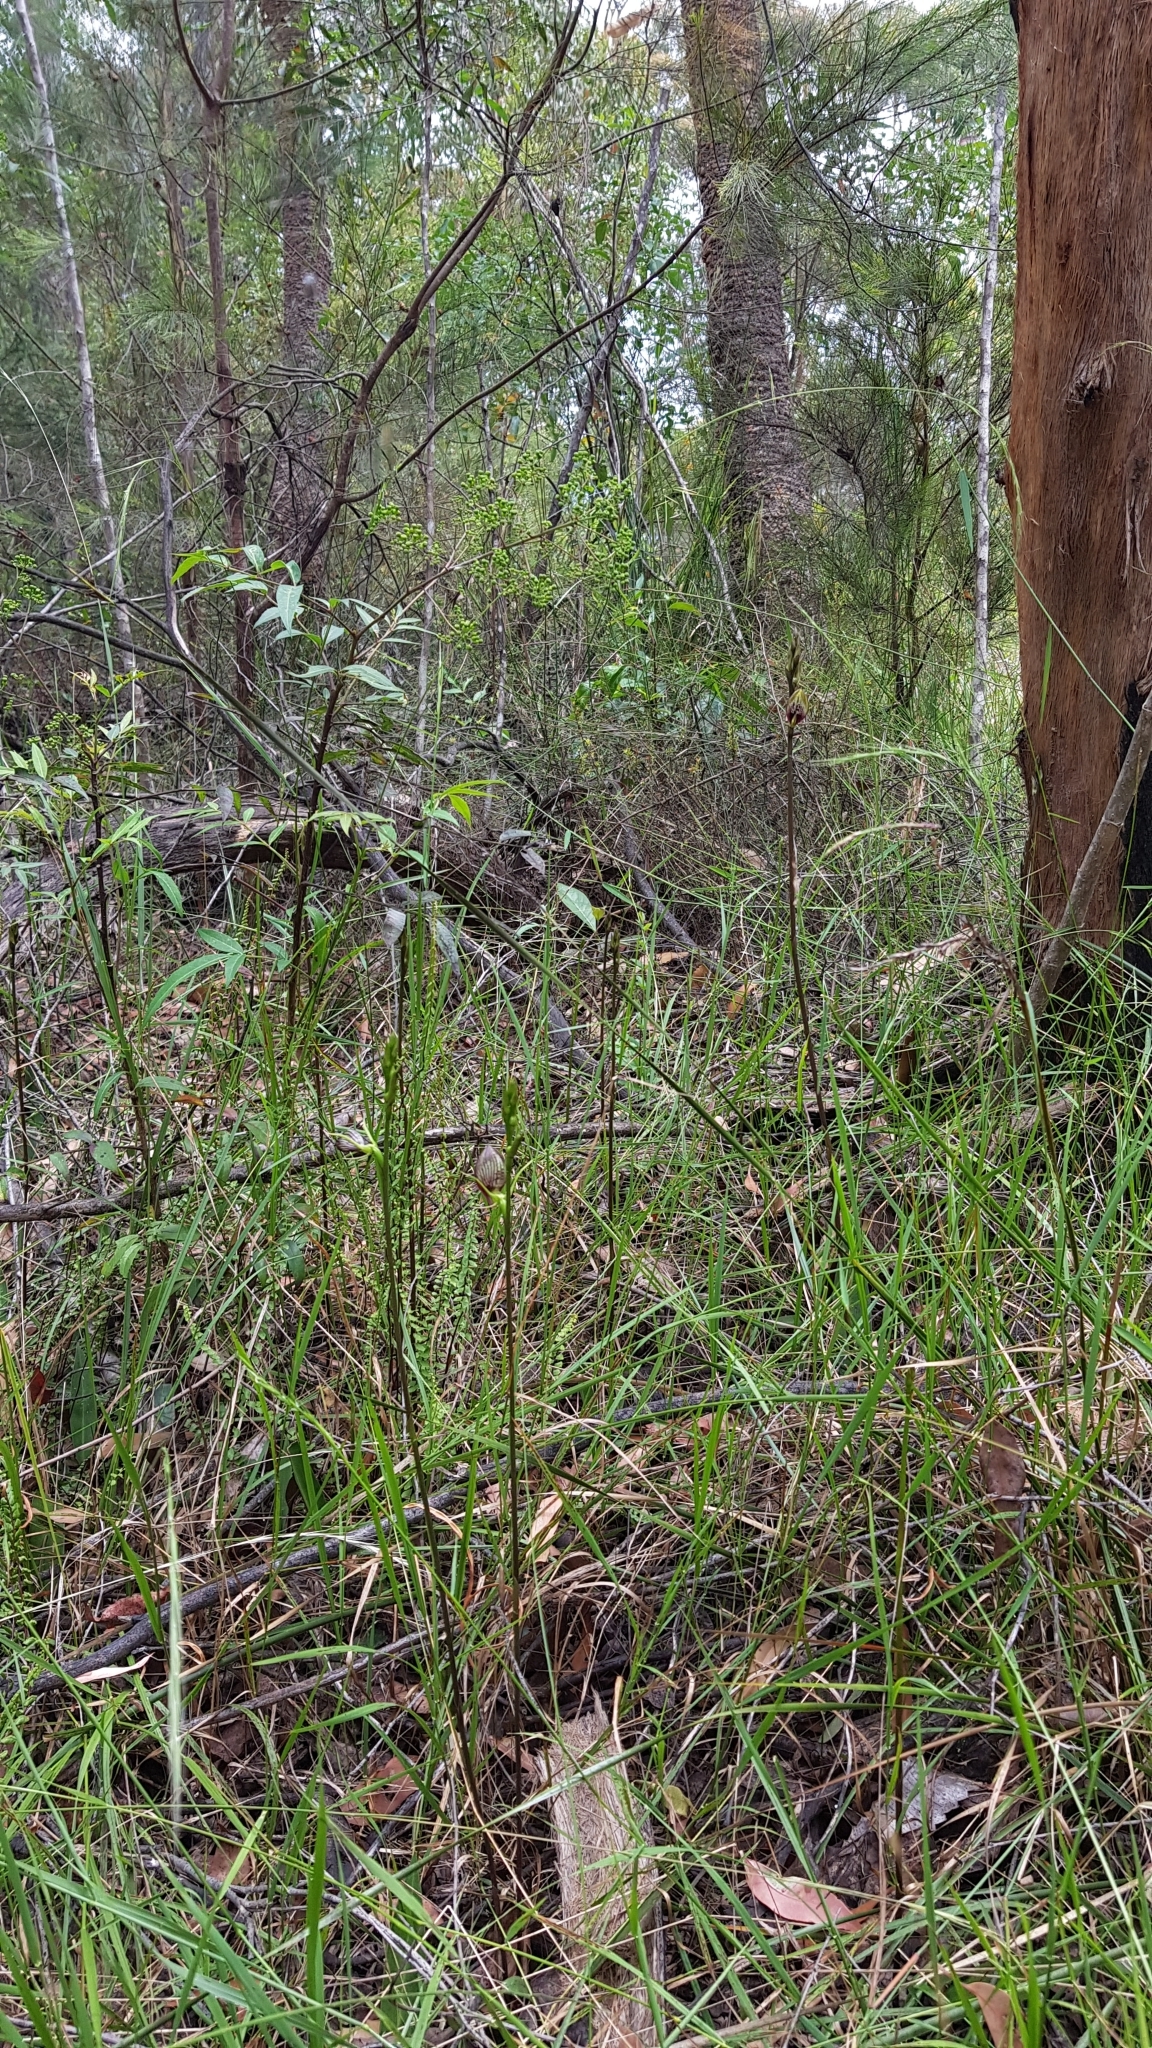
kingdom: Plantae
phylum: Tracheophyta
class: Liliopsida
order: Asparagales
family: Orchidaceae
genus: Cryptostylis
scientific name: Cryptostylis erecta
